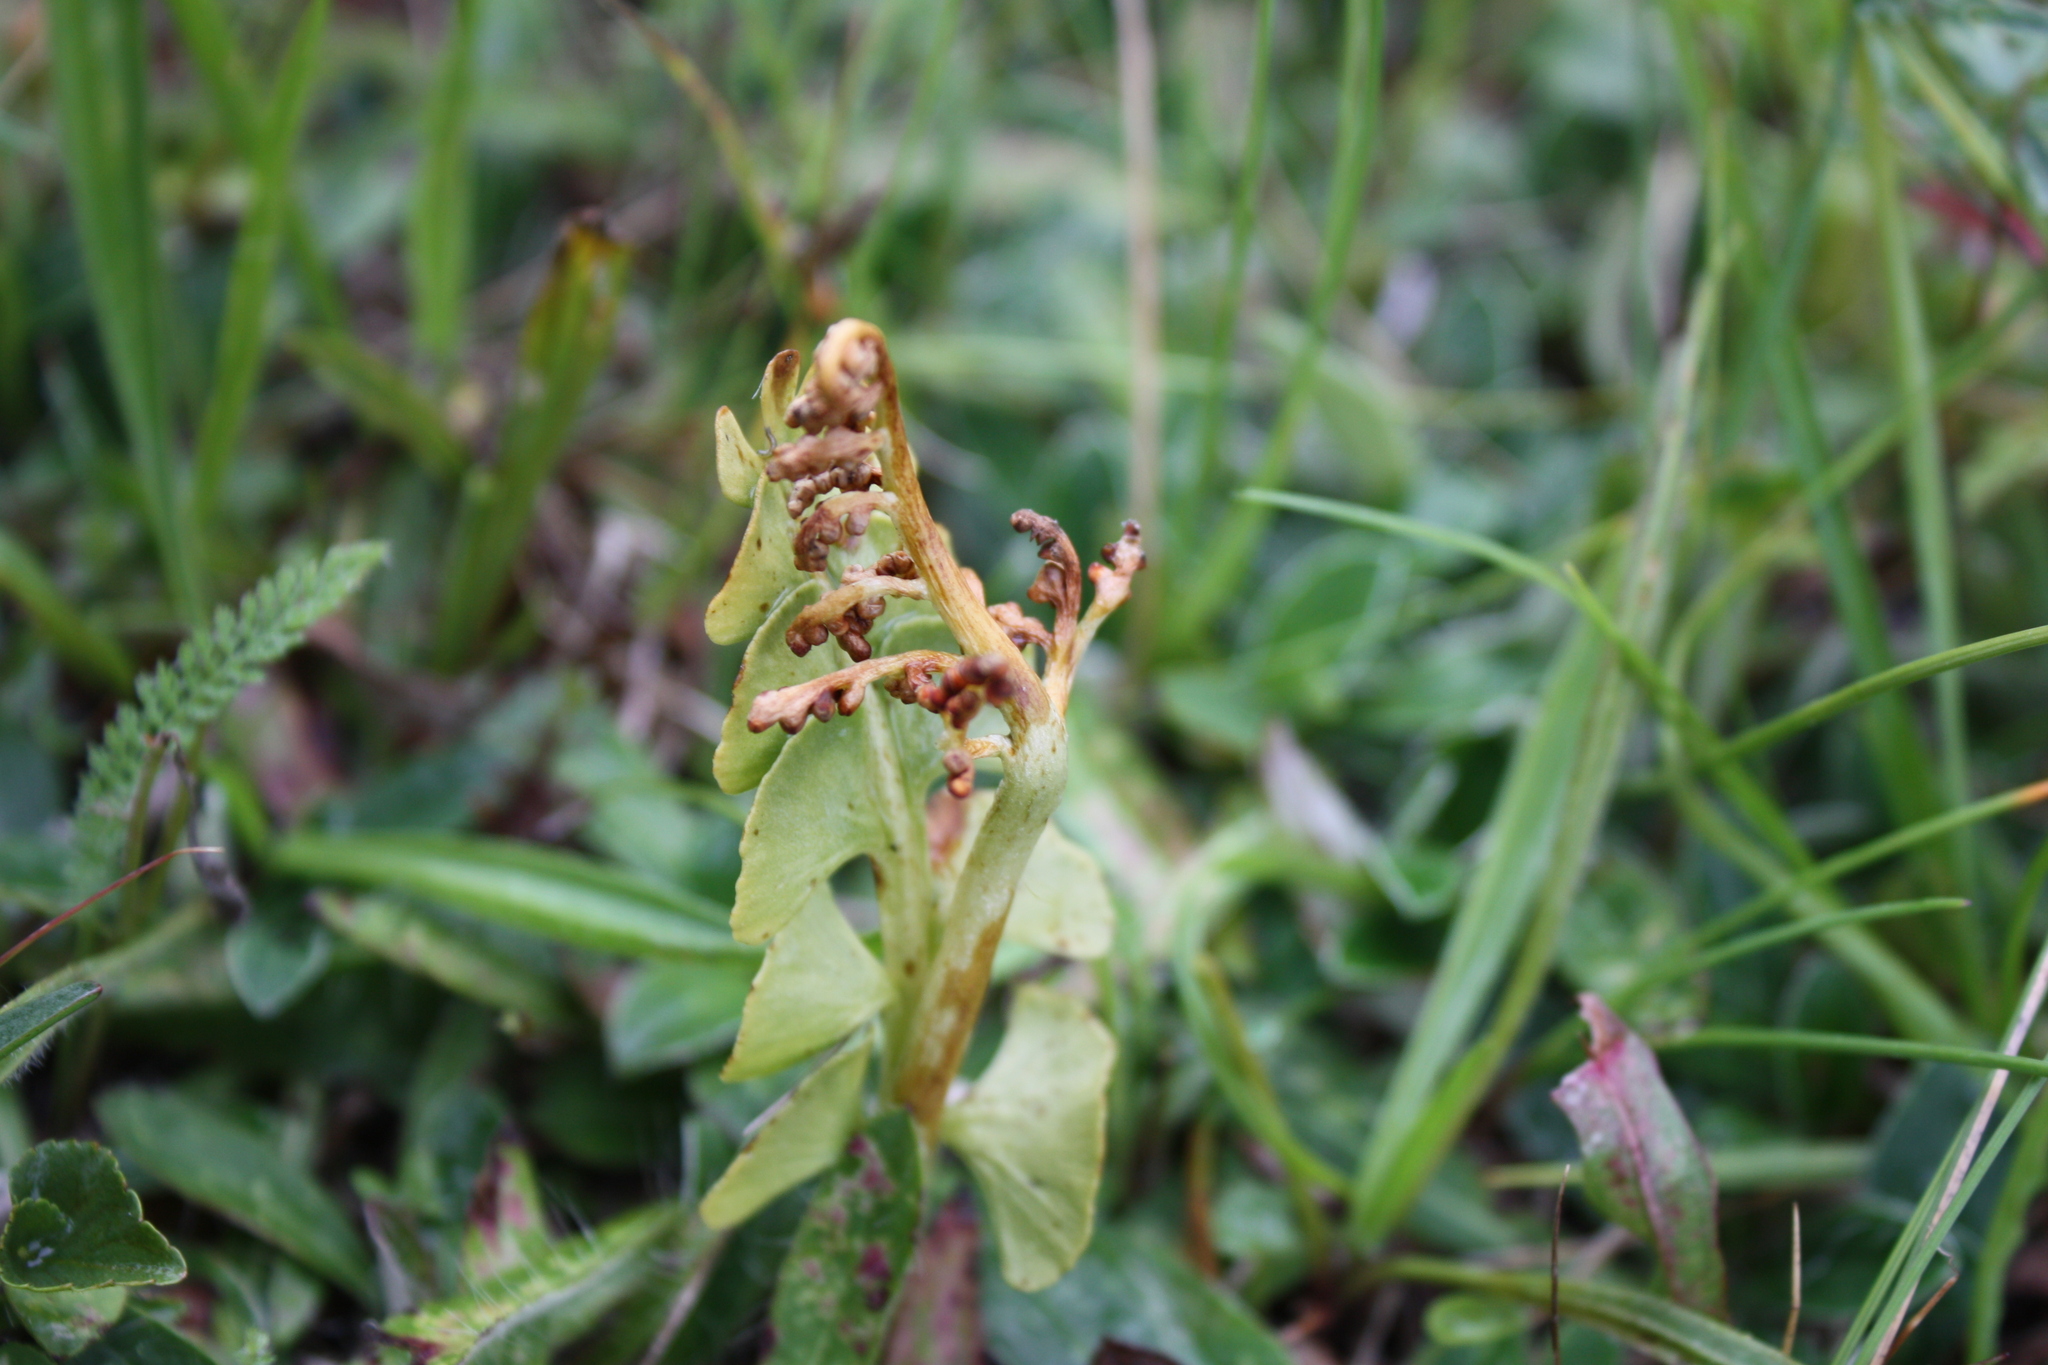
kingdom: Plantae
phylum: Tracheophyta
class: Polypodiopsida
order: Ophioglossales
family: Ophioglossaceae
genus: Botrychium
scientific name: Botrychium lunaria
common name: Moonwort
